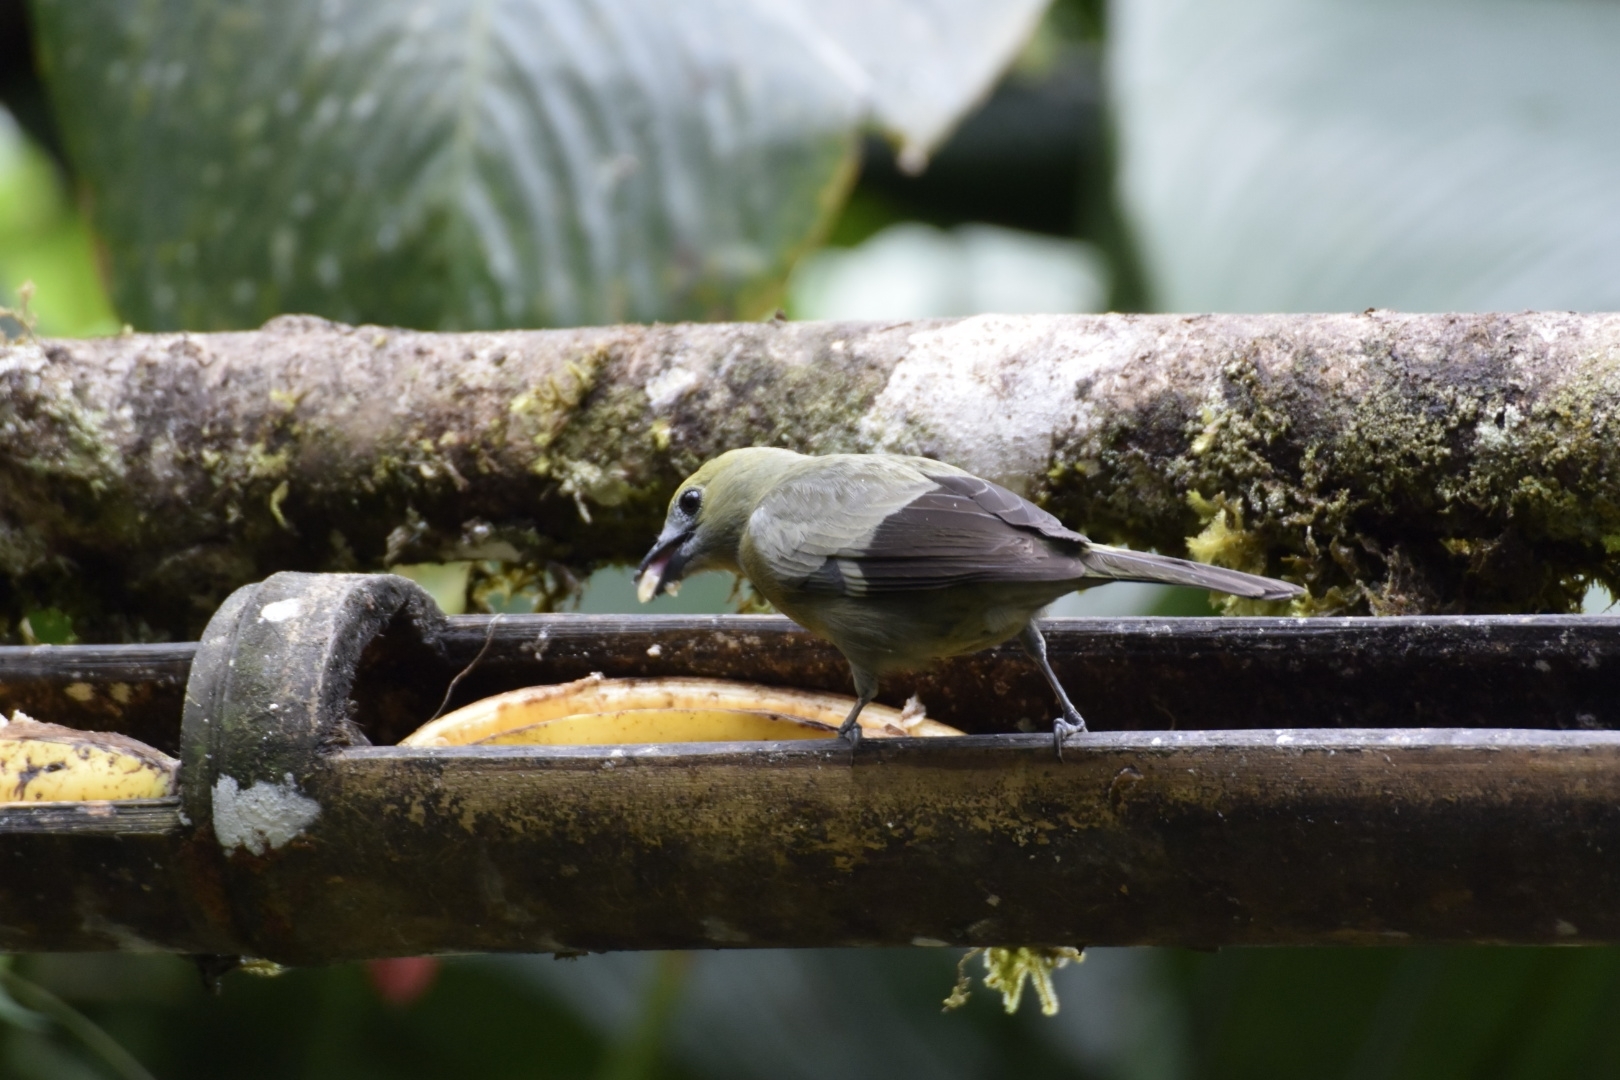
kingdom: Animalia
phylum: Chordata
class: Aves
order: Passeriformes
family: Thraupidae
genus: Thraupis
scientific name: Thraupis palmarum
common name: Palm tanager
